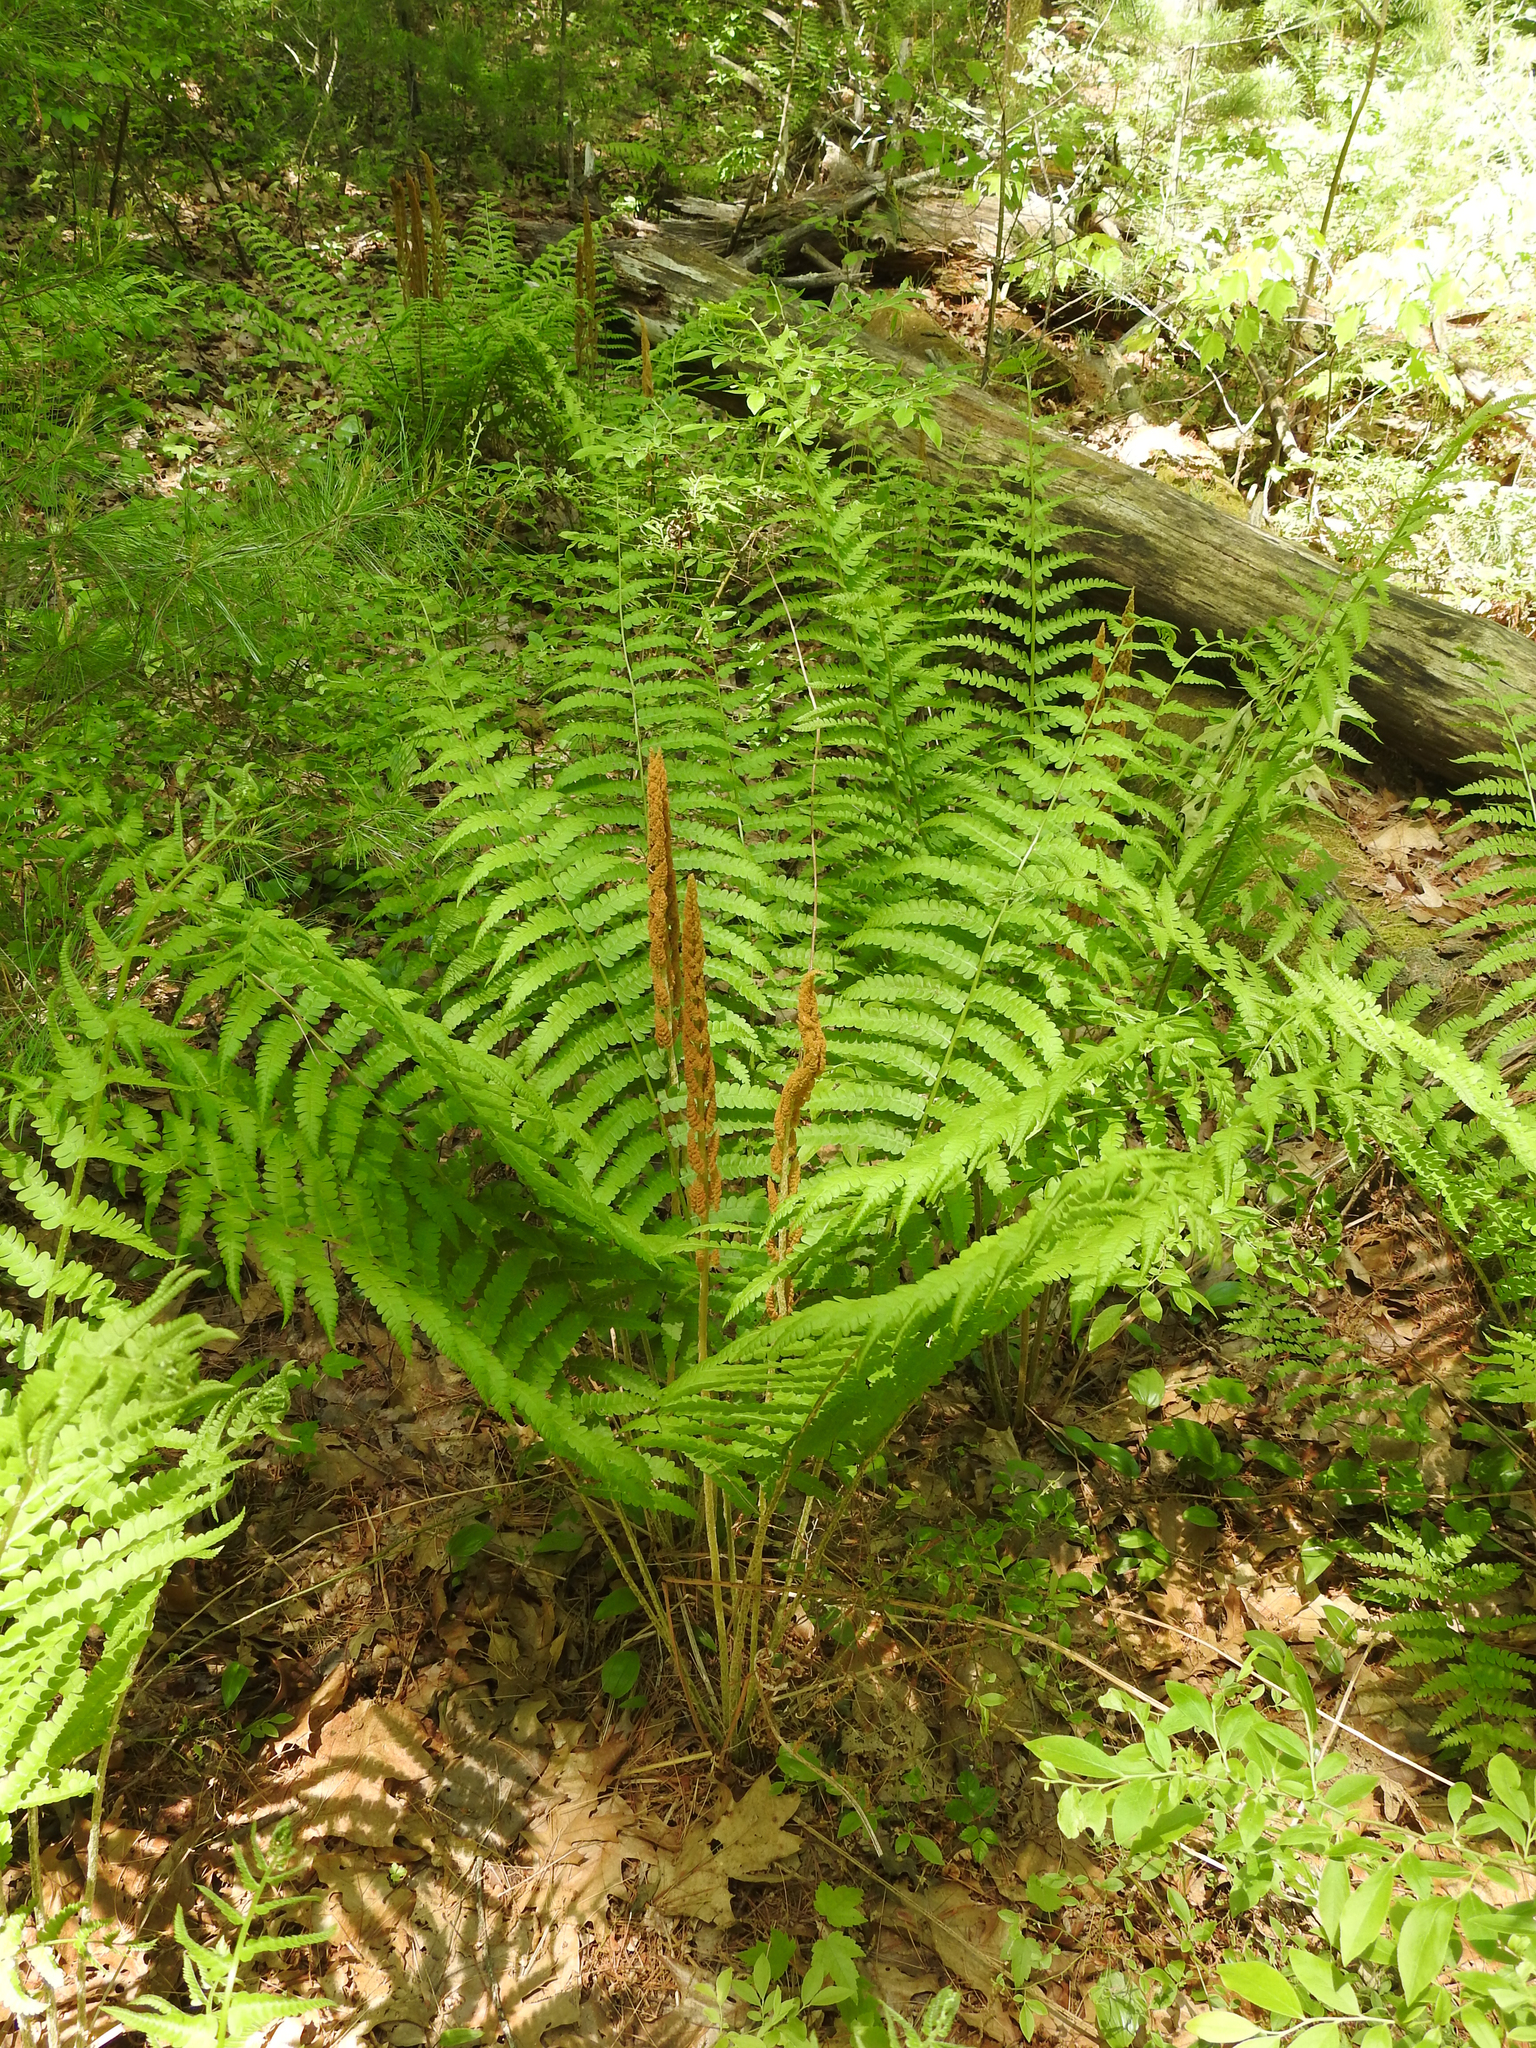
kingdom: Plantae
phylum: Tracheophyta
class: Polypodiopsida
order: Osmundales
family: Osmundaceae
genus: Osmundastrum
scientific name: Osmundastrum cinnamomeum
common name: Cinnamon fern
